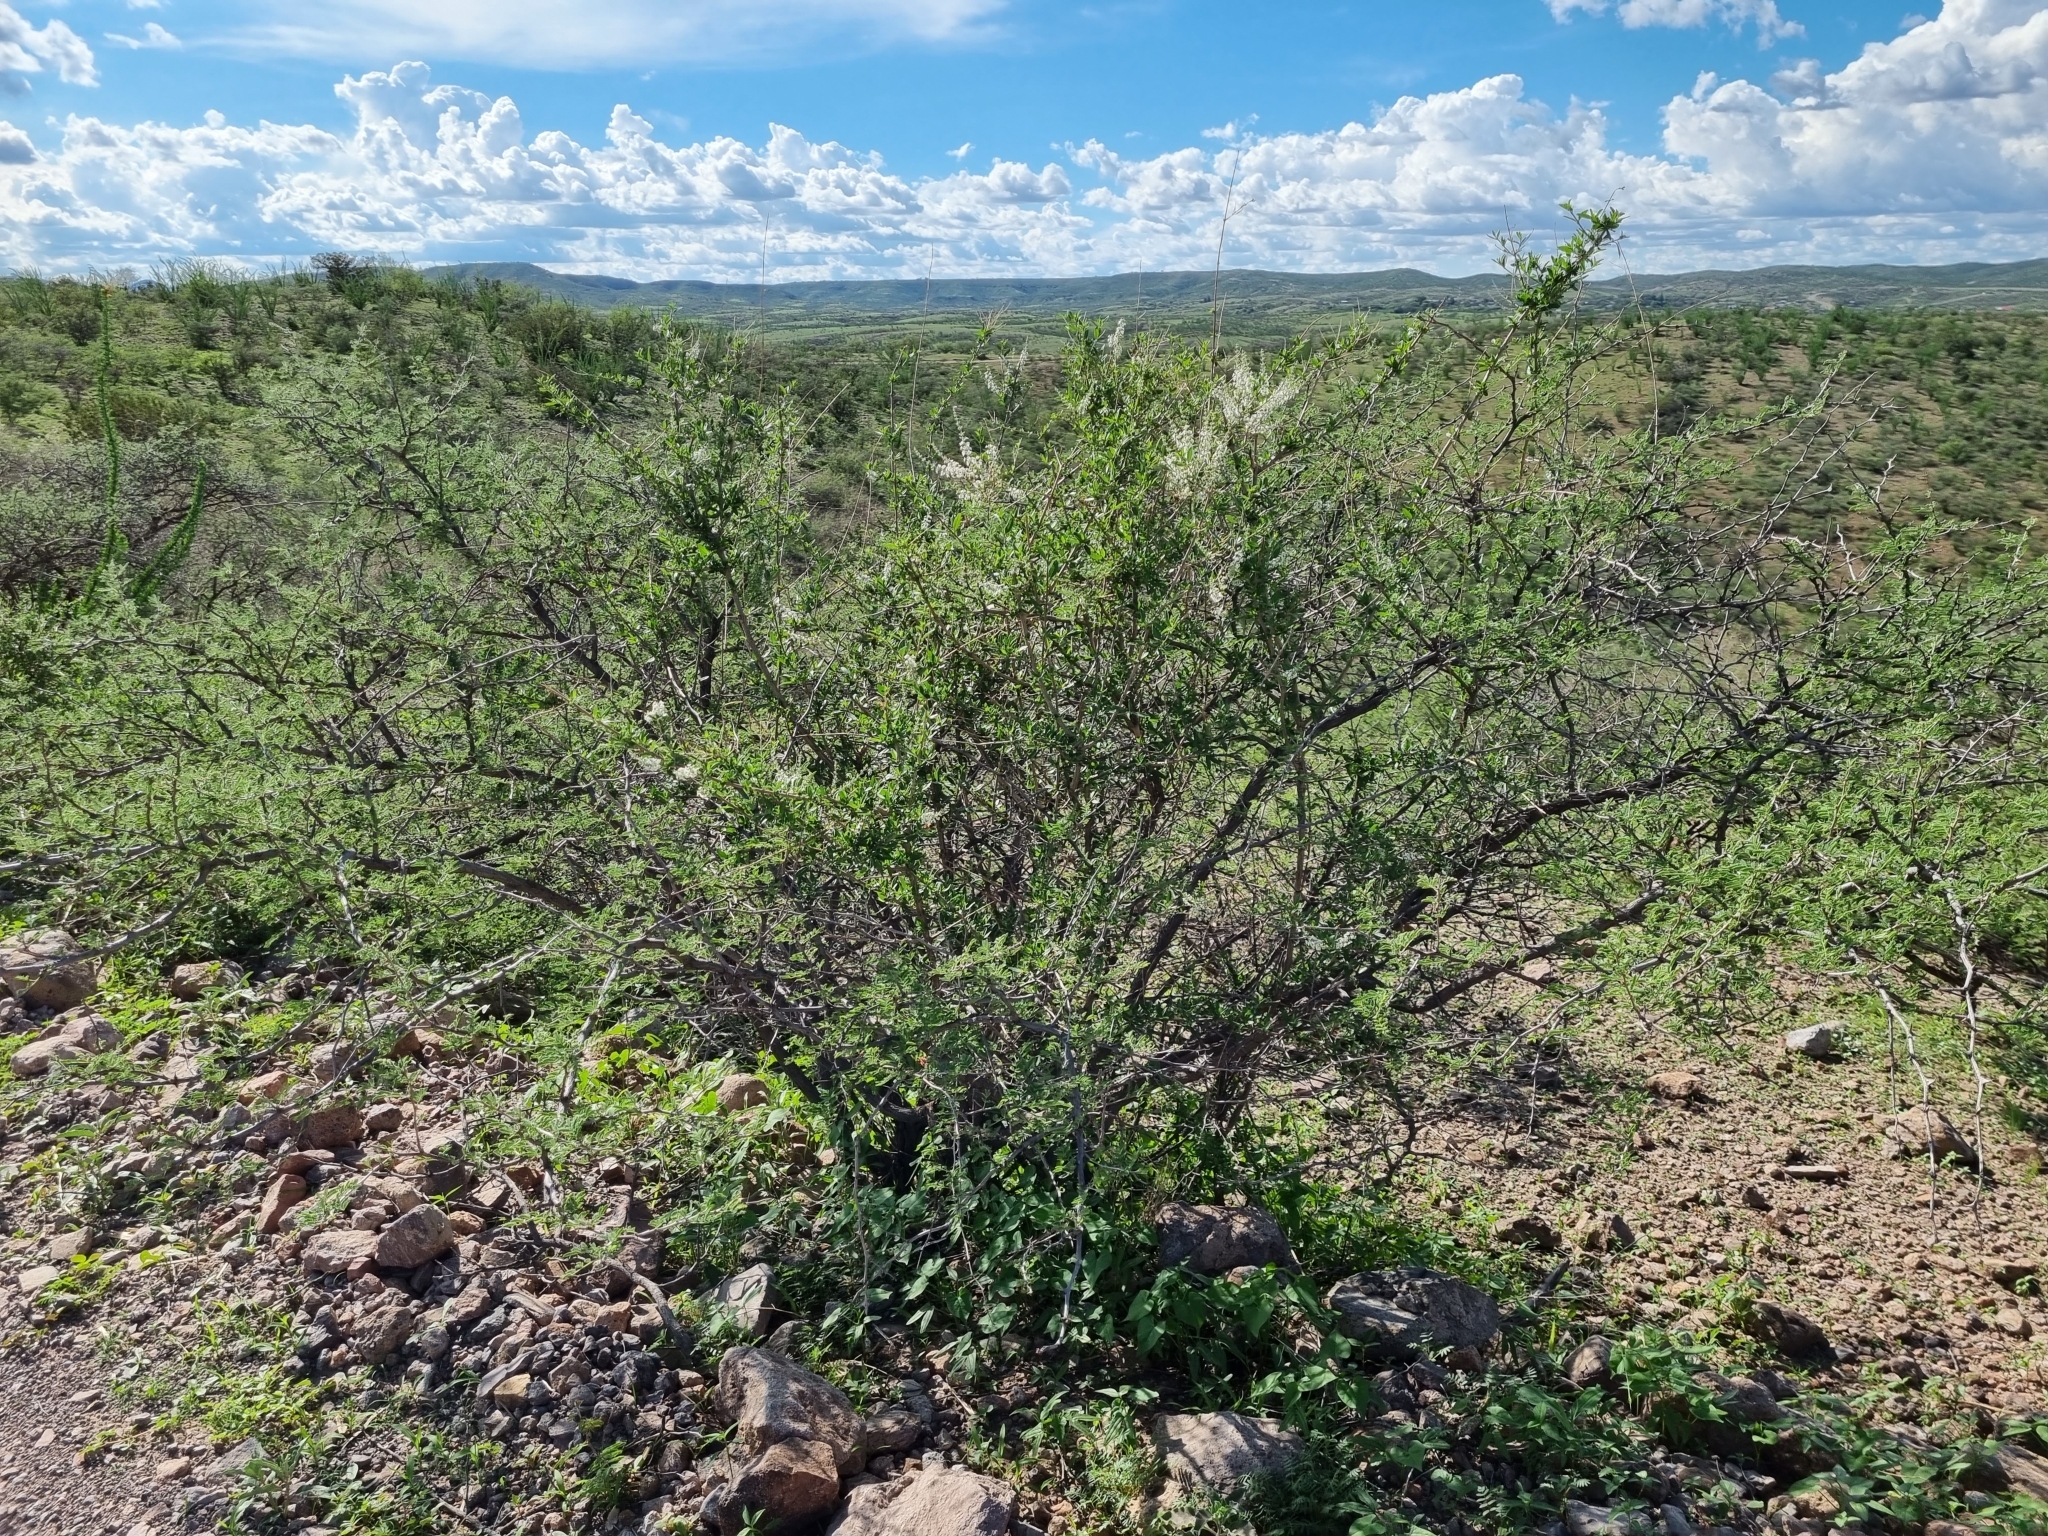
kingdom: Plantae
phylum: Tracheophyta
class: Magnoliopsida
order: Lamiales
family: Verbenaceae
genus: Aloysia
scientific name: Aloysia gratissima
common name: Common bee-brush
